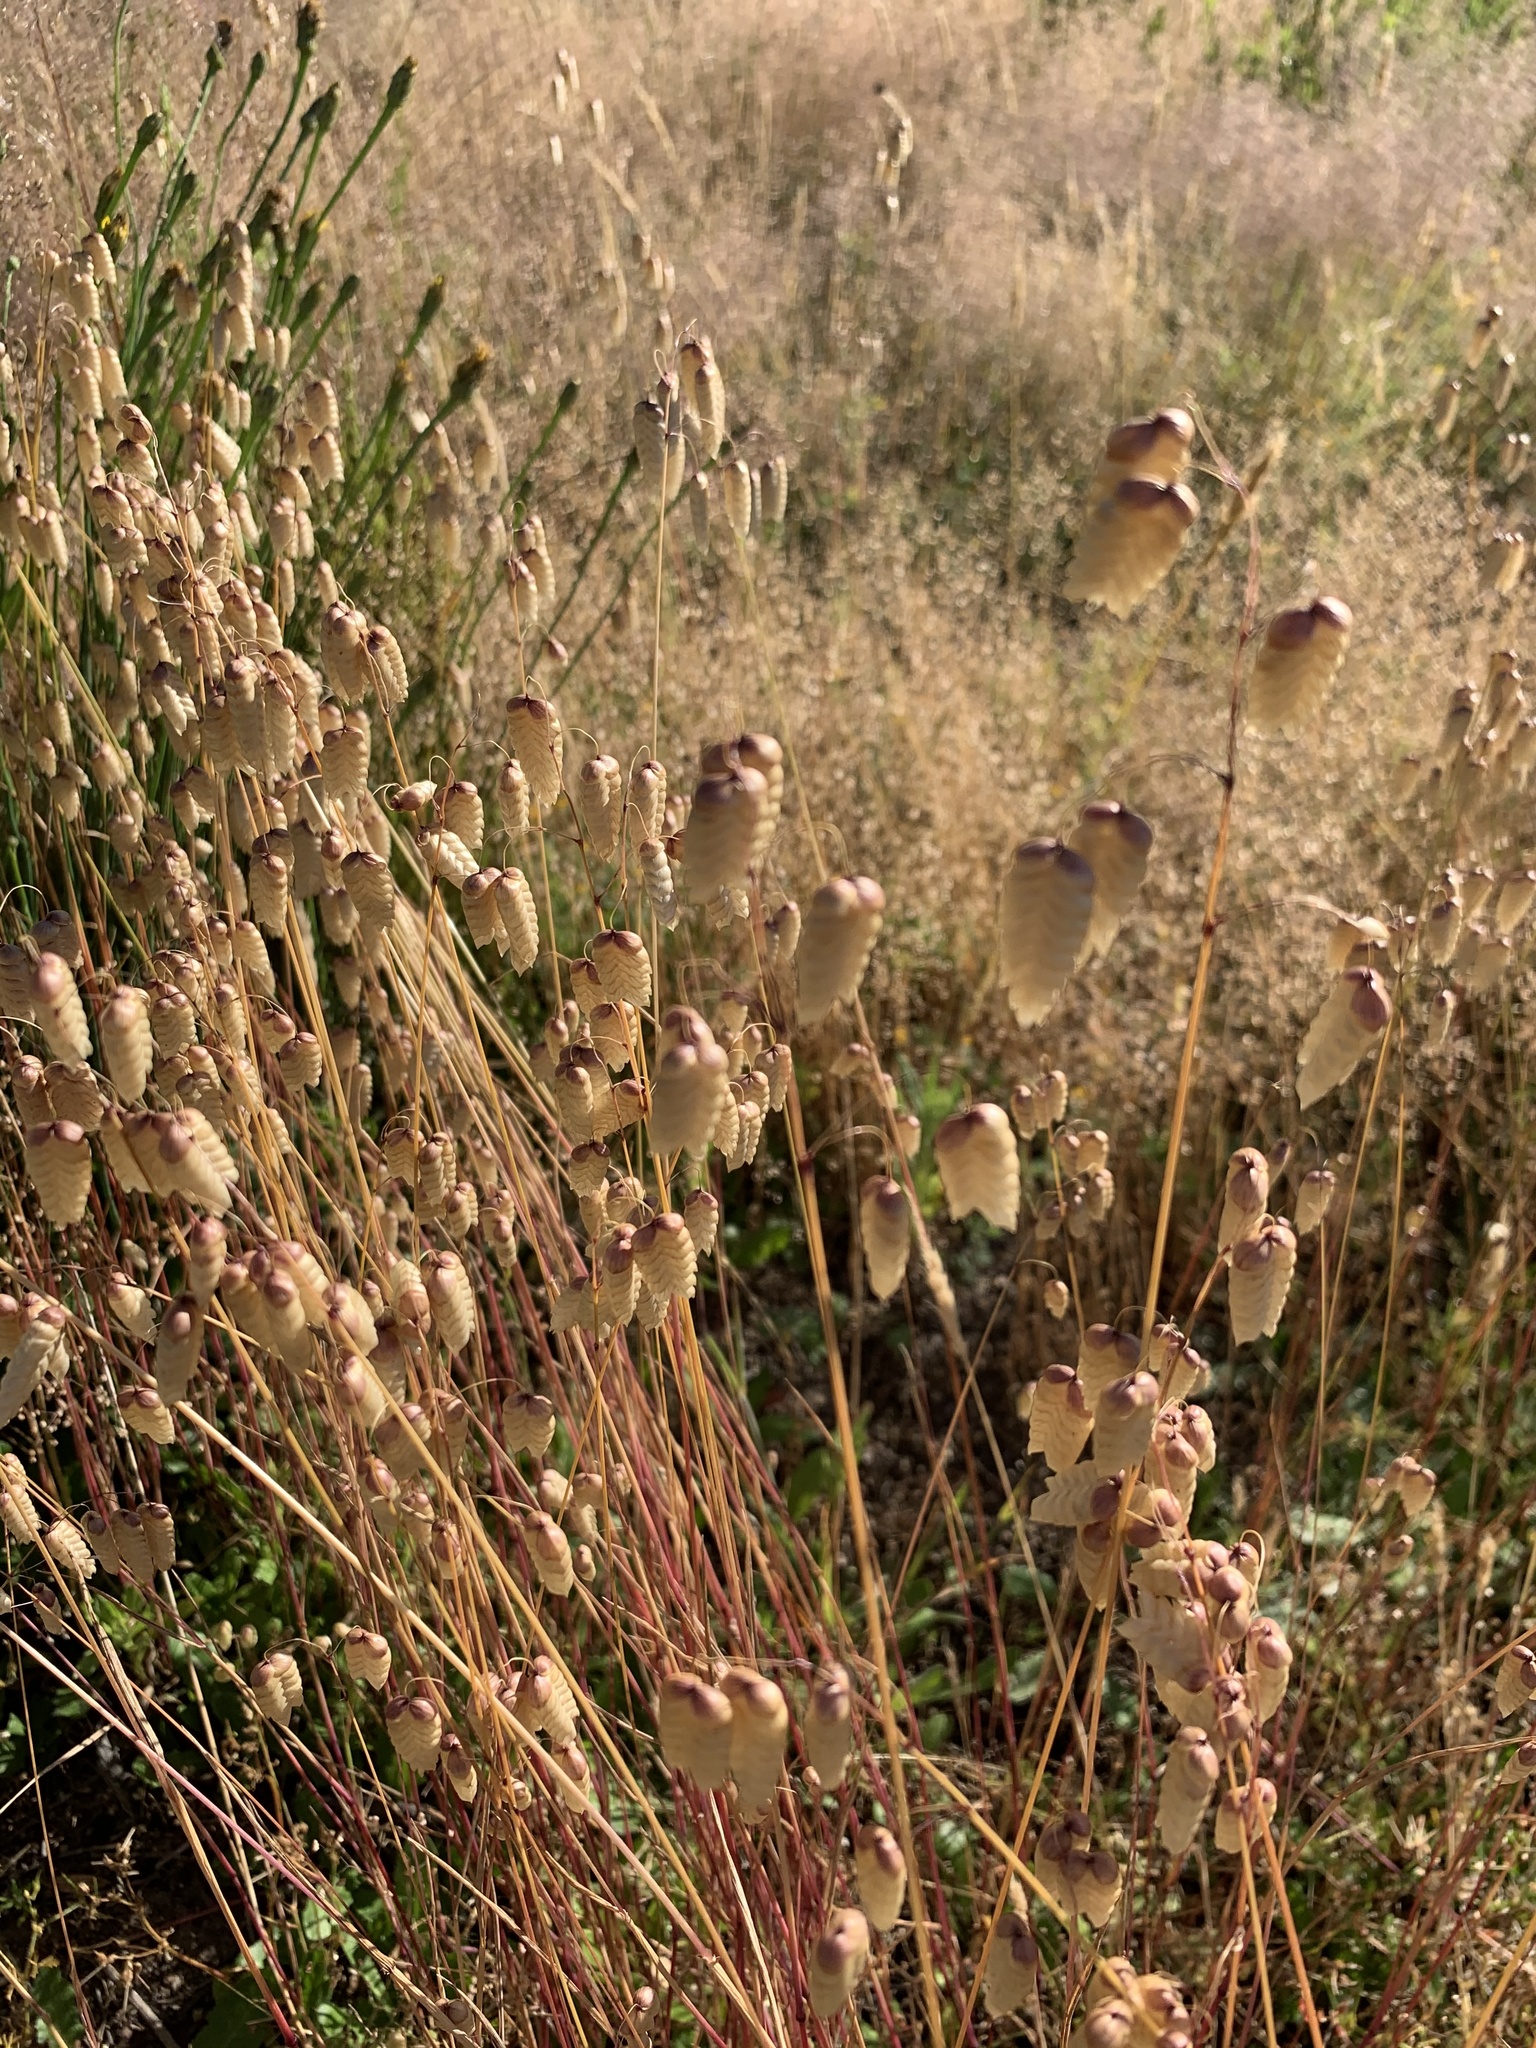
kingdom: Plantae
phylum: Tracheophyta
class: Liliopsida
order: Poales
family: Poaceae
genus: Briza
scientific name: Briza maxima
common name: Big quakinggrass
